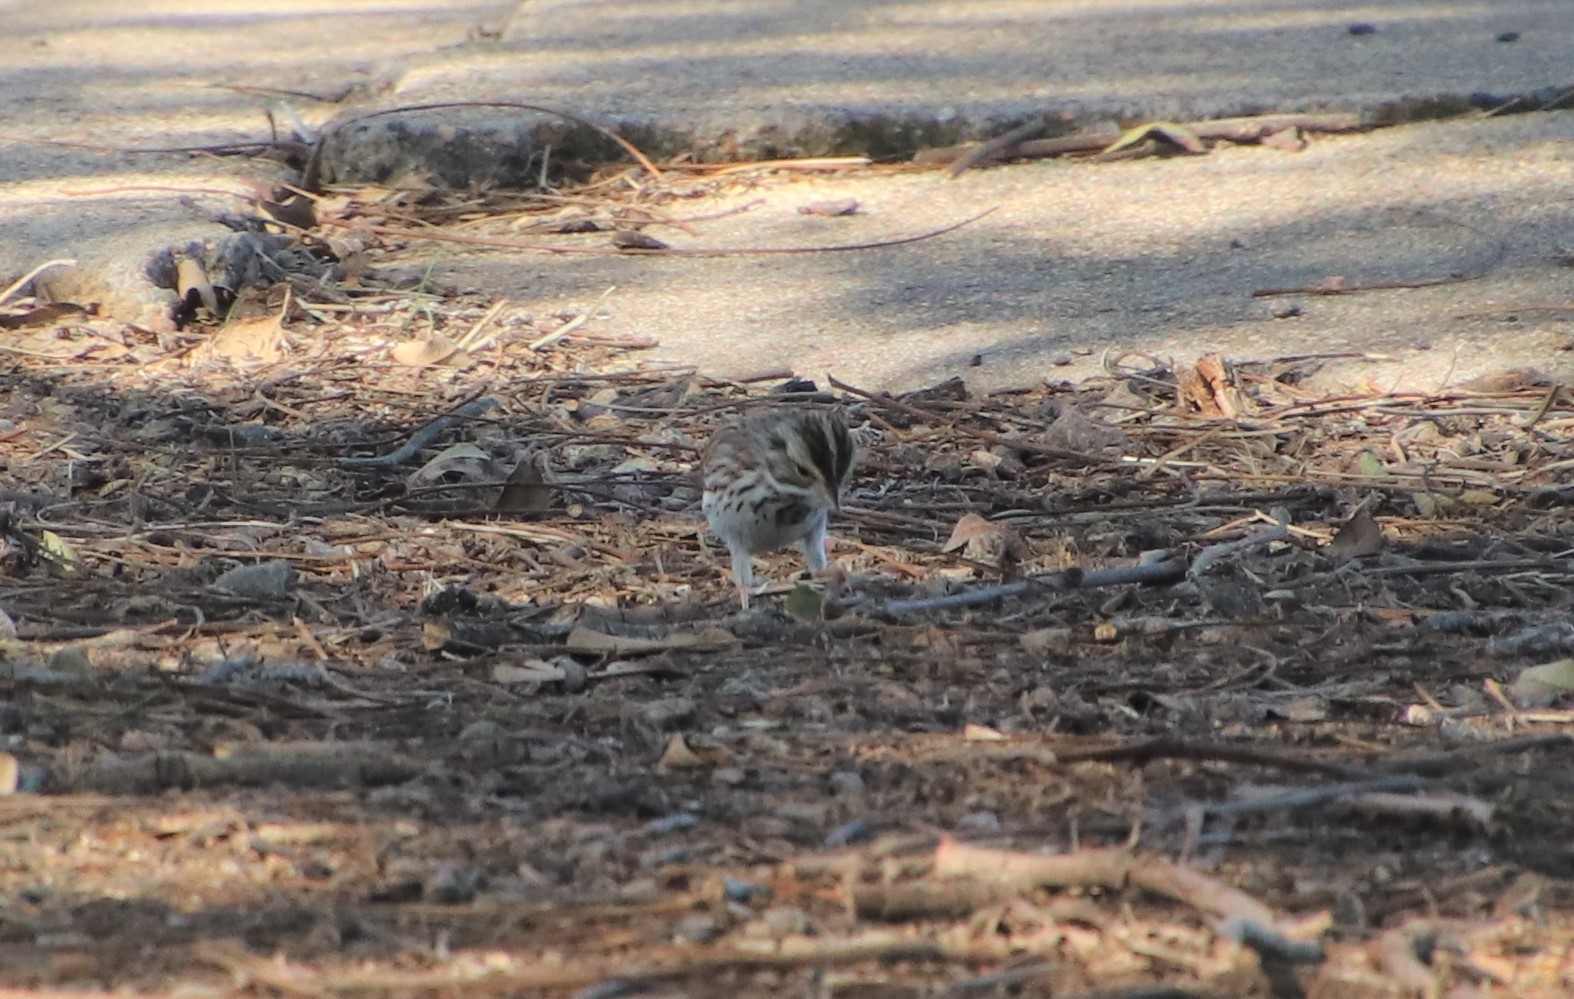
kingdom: Animalia
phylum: Chordata
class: Aves
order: Passeriformes
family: Passerellidae
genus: Passerculus
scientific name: Passerculus sandwichensis
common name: Savannah sparrow
